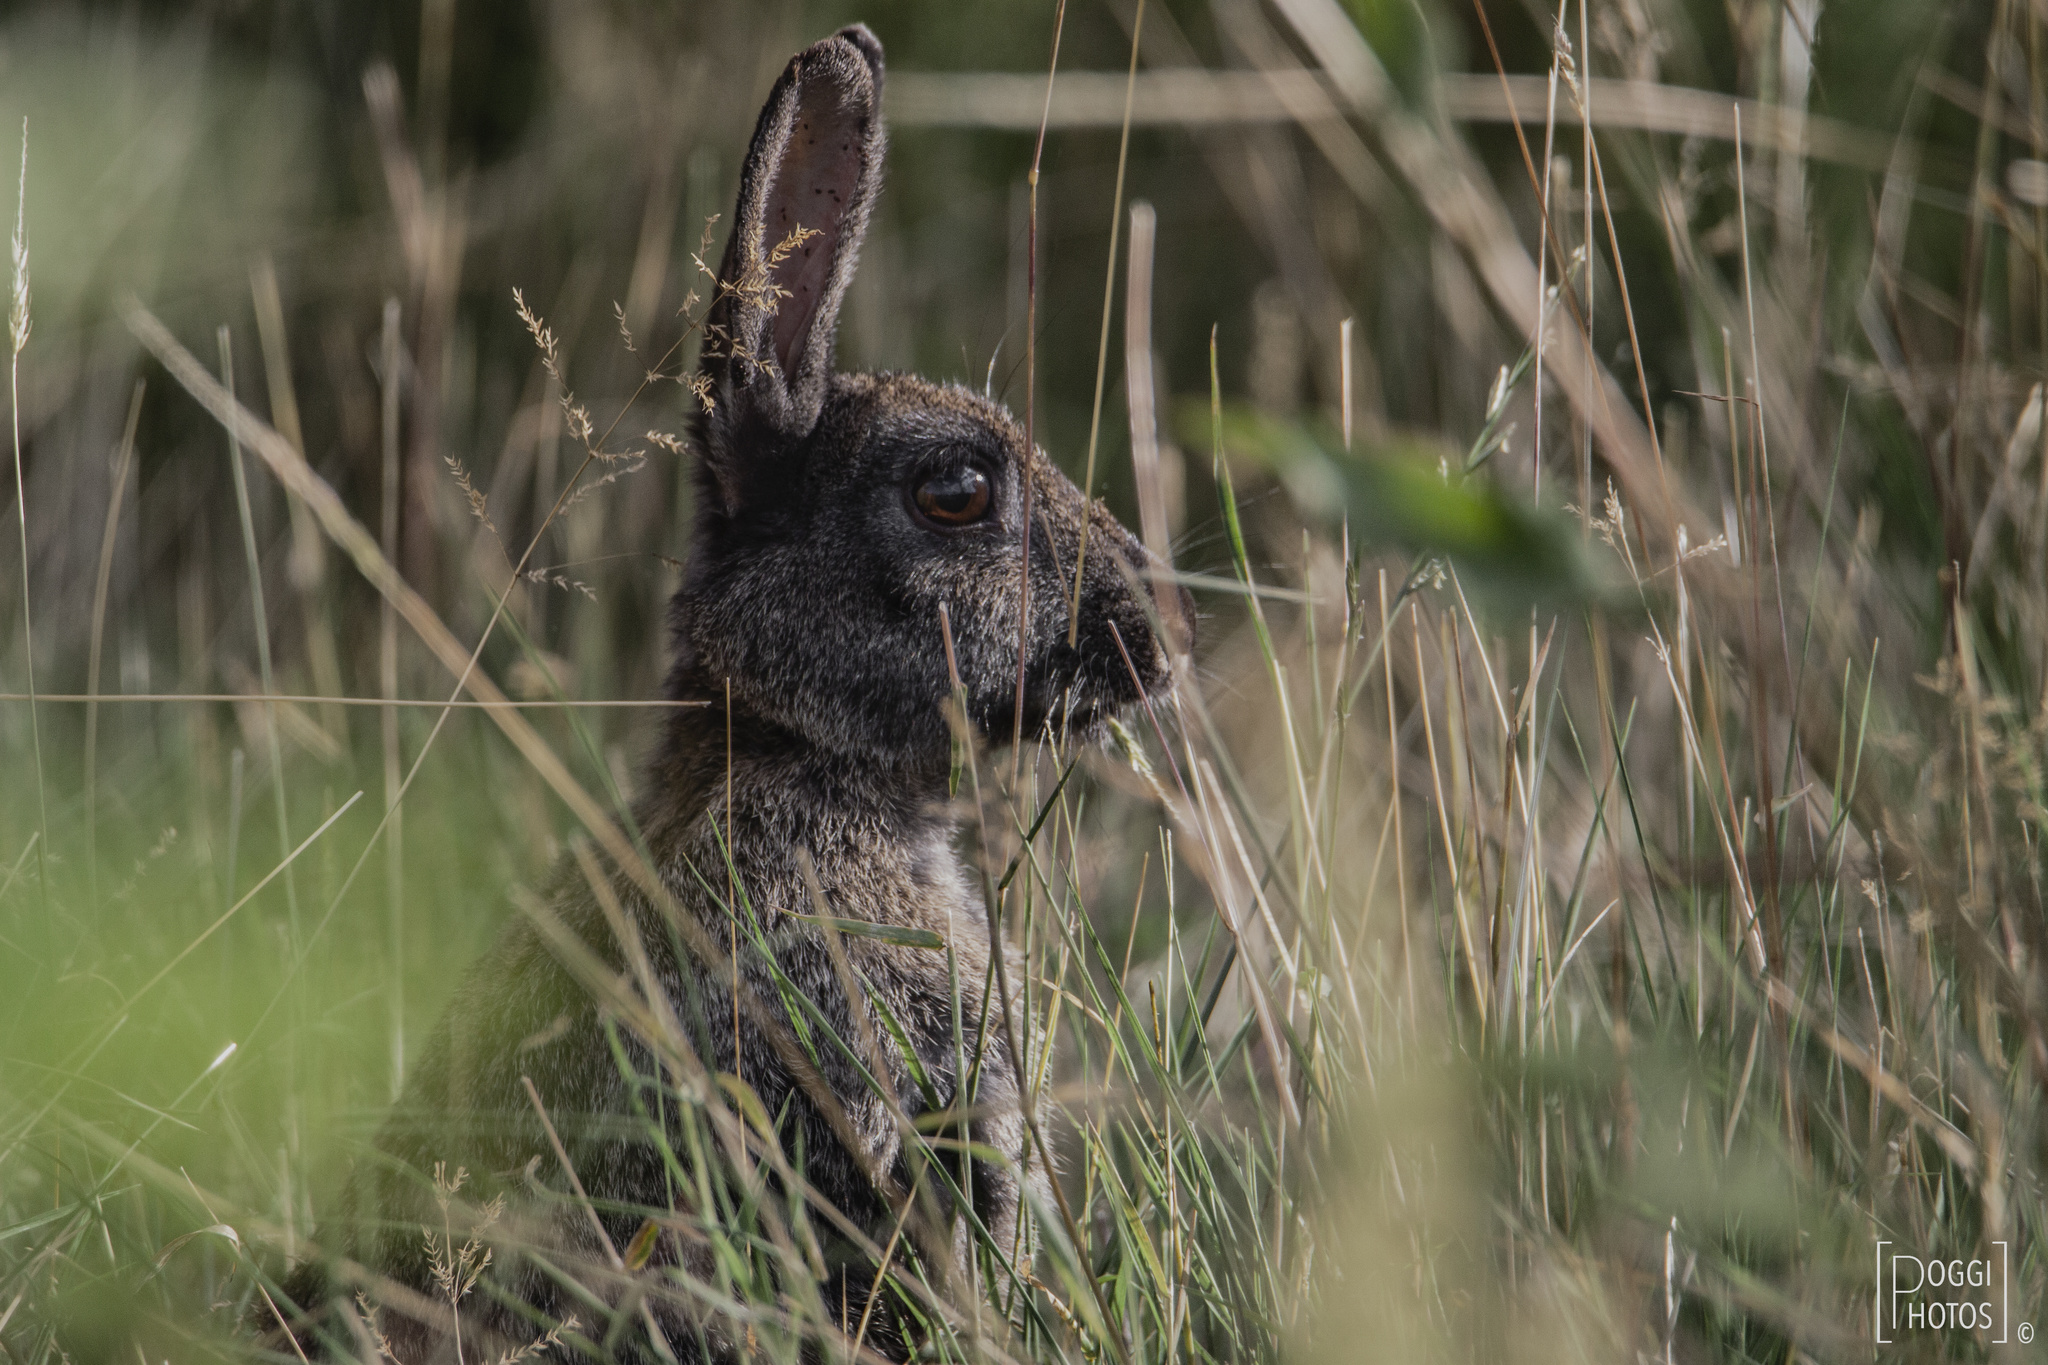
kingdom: Animalia
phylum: Chordata
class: Mammalia
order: Lagomorpha
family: Leporidae
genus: Oryctolagus
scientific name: Oryctolagus cuniculus
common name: European rabbit
